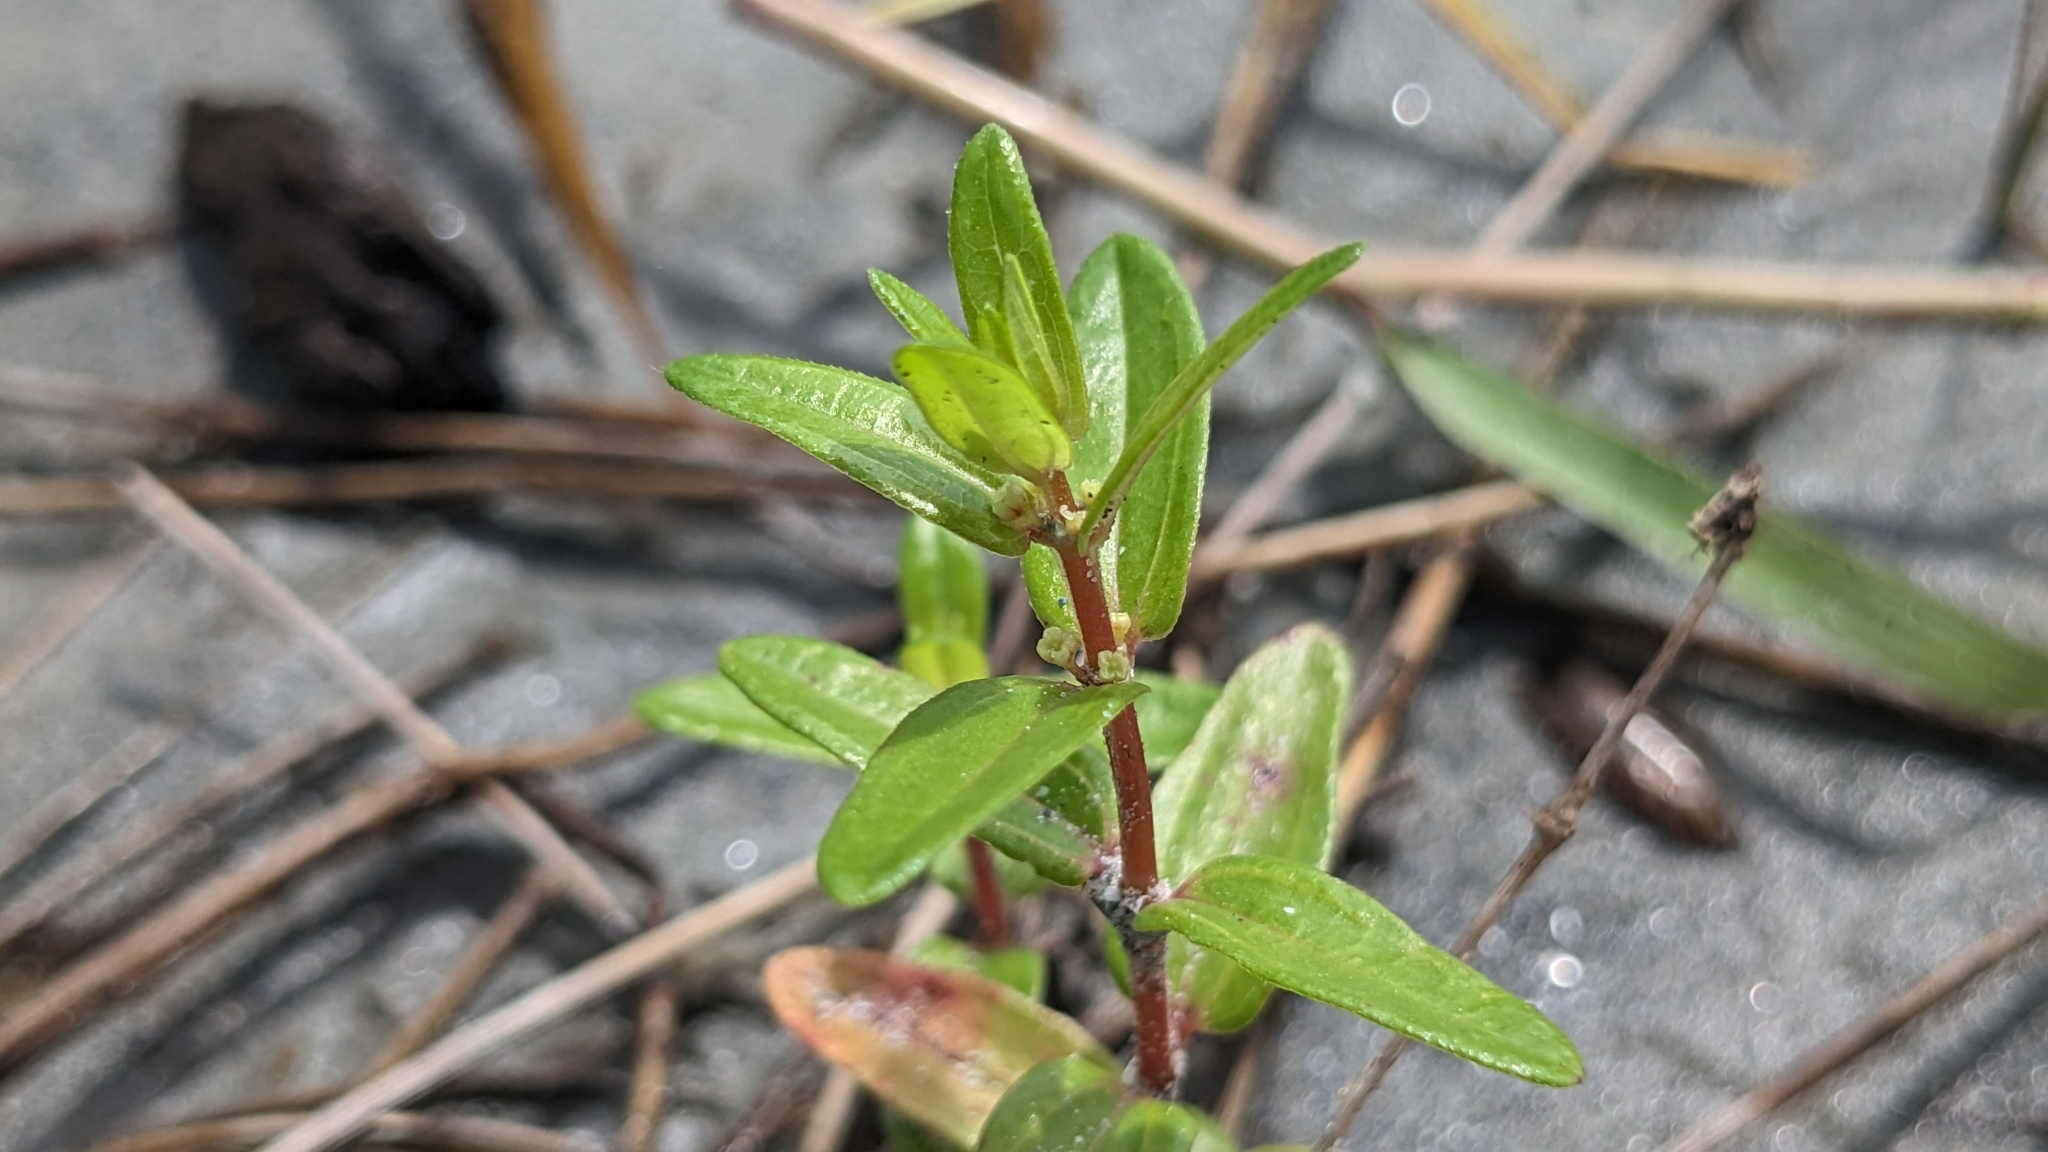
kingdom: Plantae
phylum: Tracheophyta
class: Magnoliopsida
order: Rosales
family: Urticaceae
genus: Gonostegia
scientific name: Gonostegia pentandra
